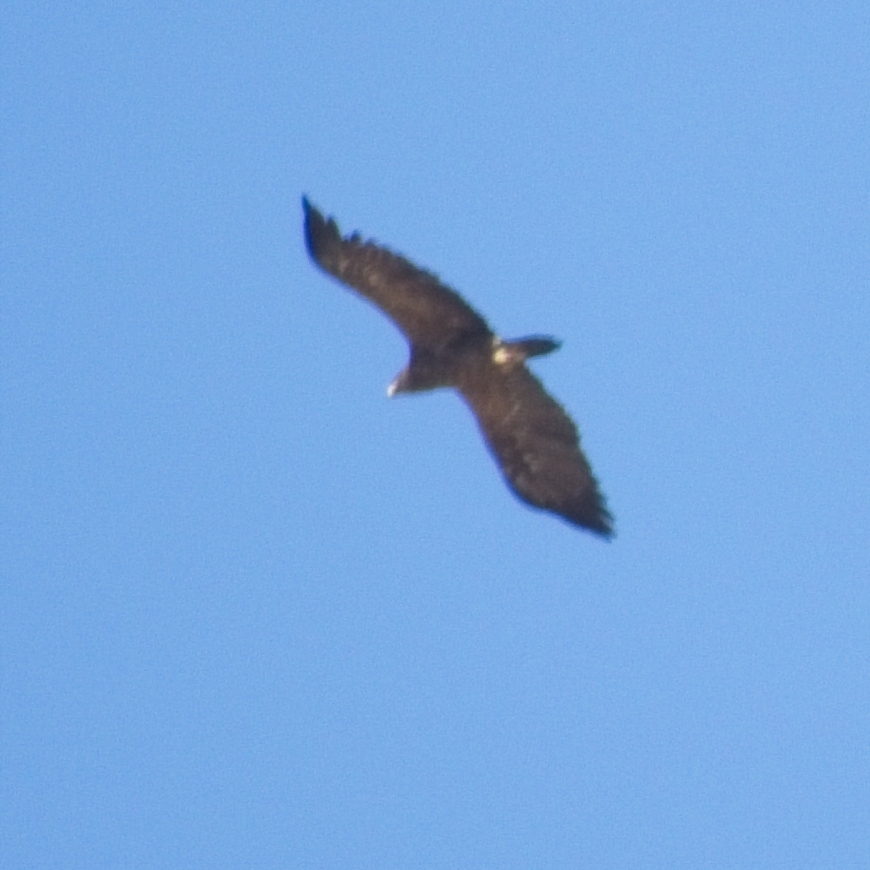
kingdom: Animalia
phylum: Chordata
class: Aves
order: Accipitriformes
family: Accipitridae
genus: Aquila
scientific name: Aquila nipalensis
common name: Steppe eagle
